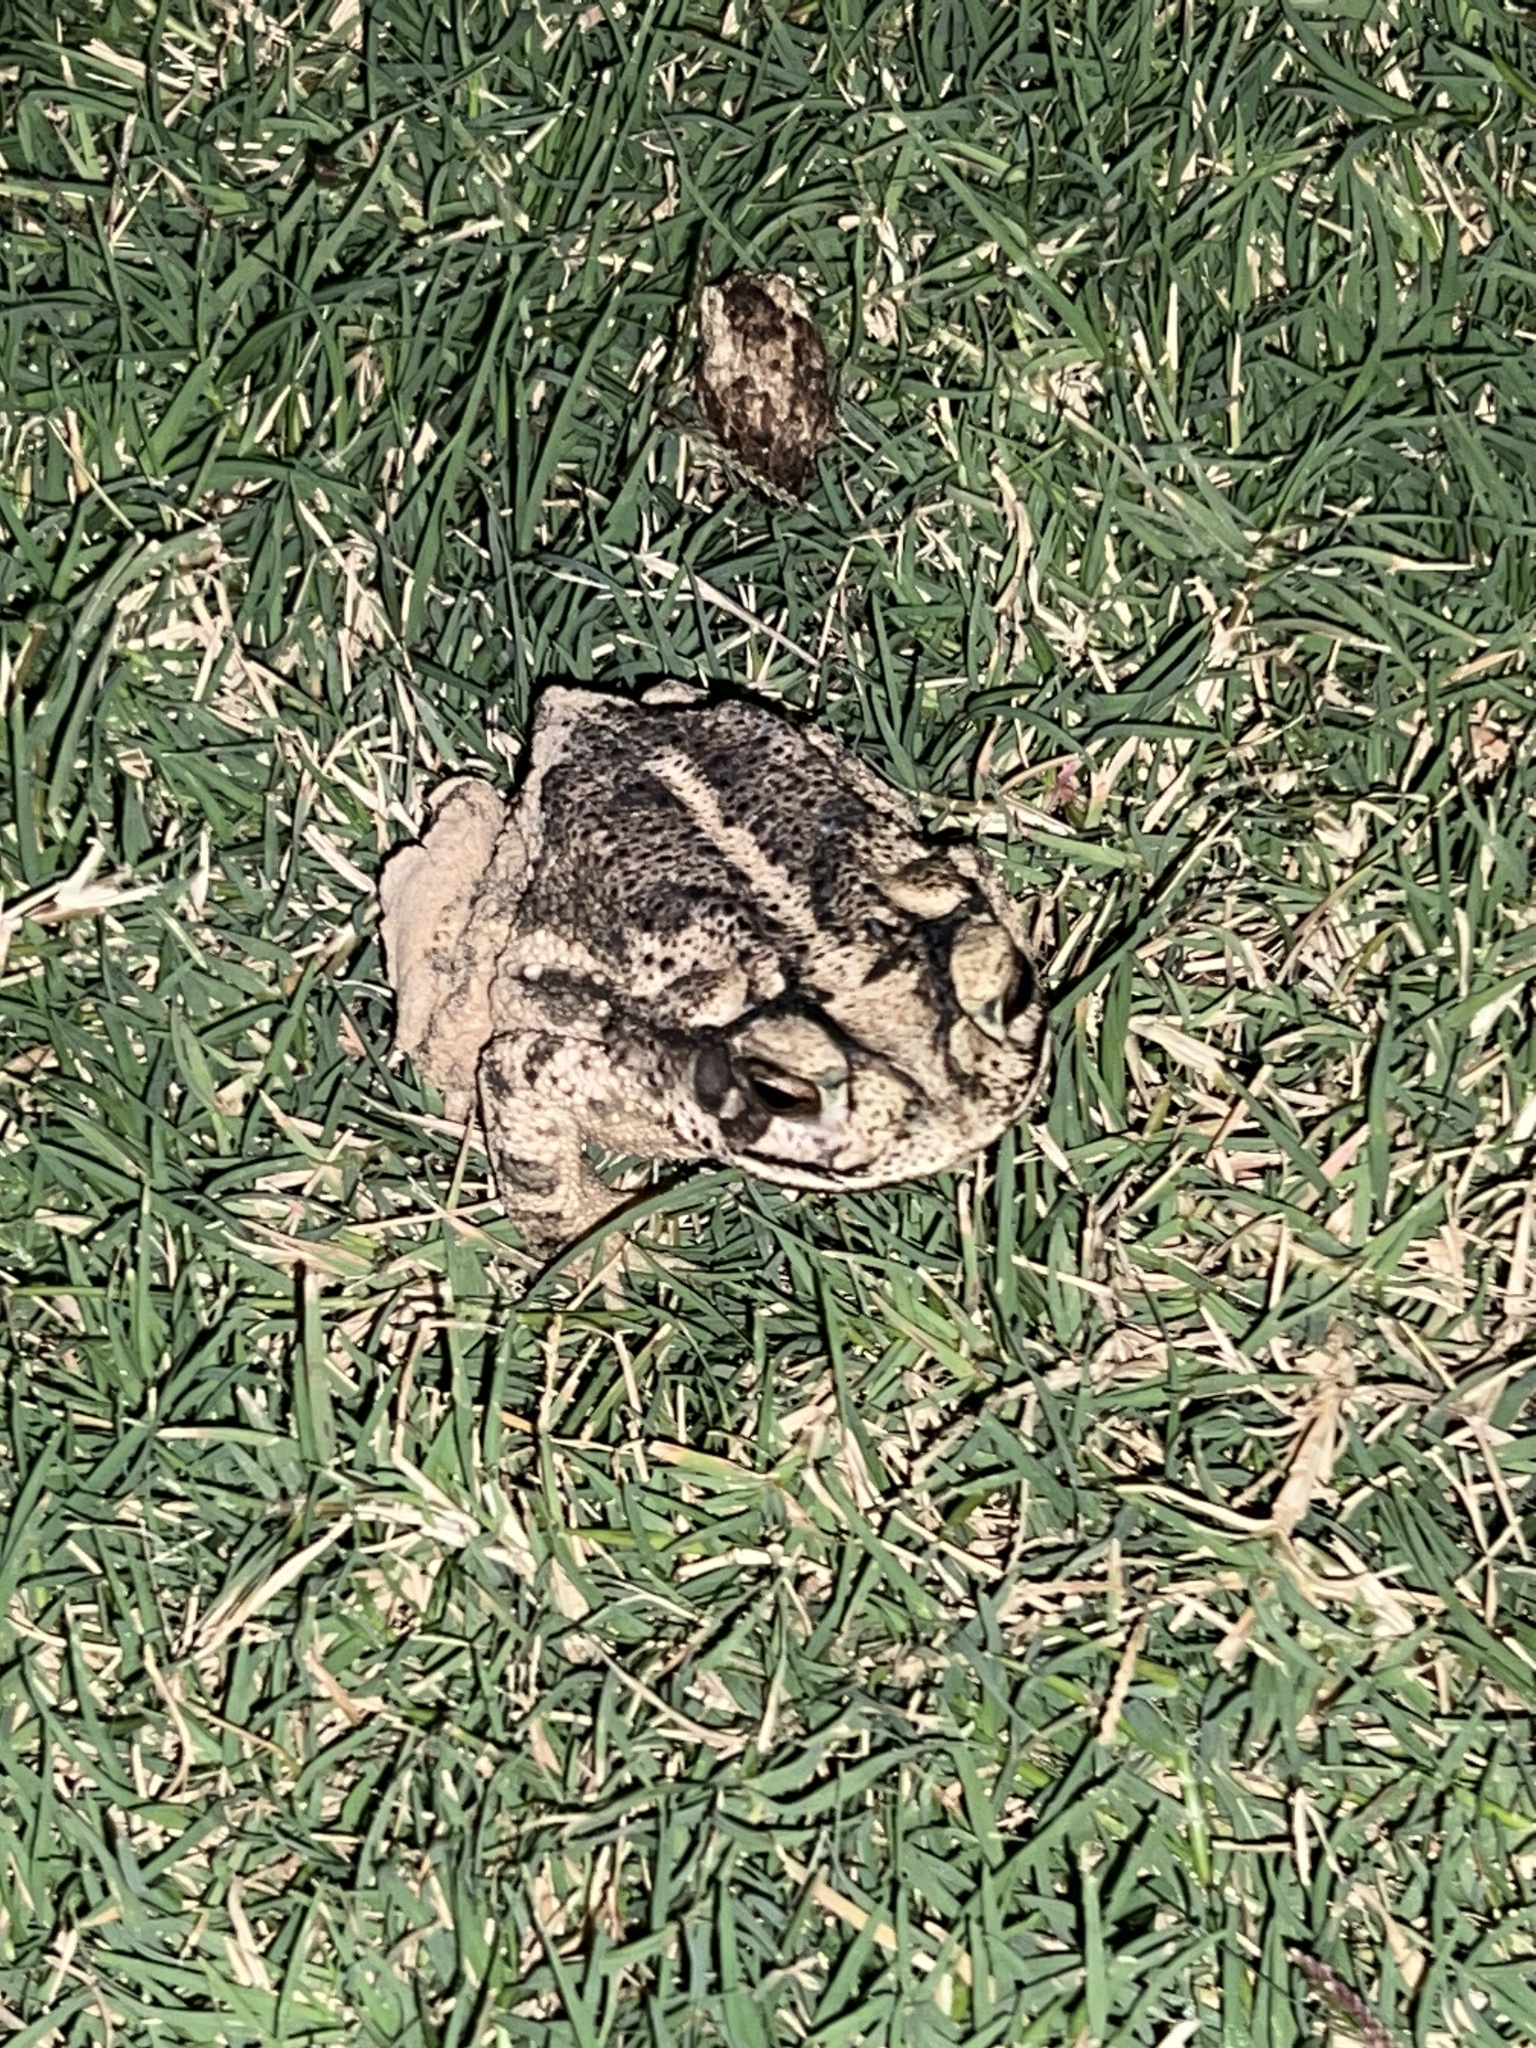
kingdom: Animalia
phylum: Chordata
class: Amphibia
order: Anura
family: Bufonidae
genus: Incilius
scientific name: Incilius nebulifer
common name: Gulf coast toad
